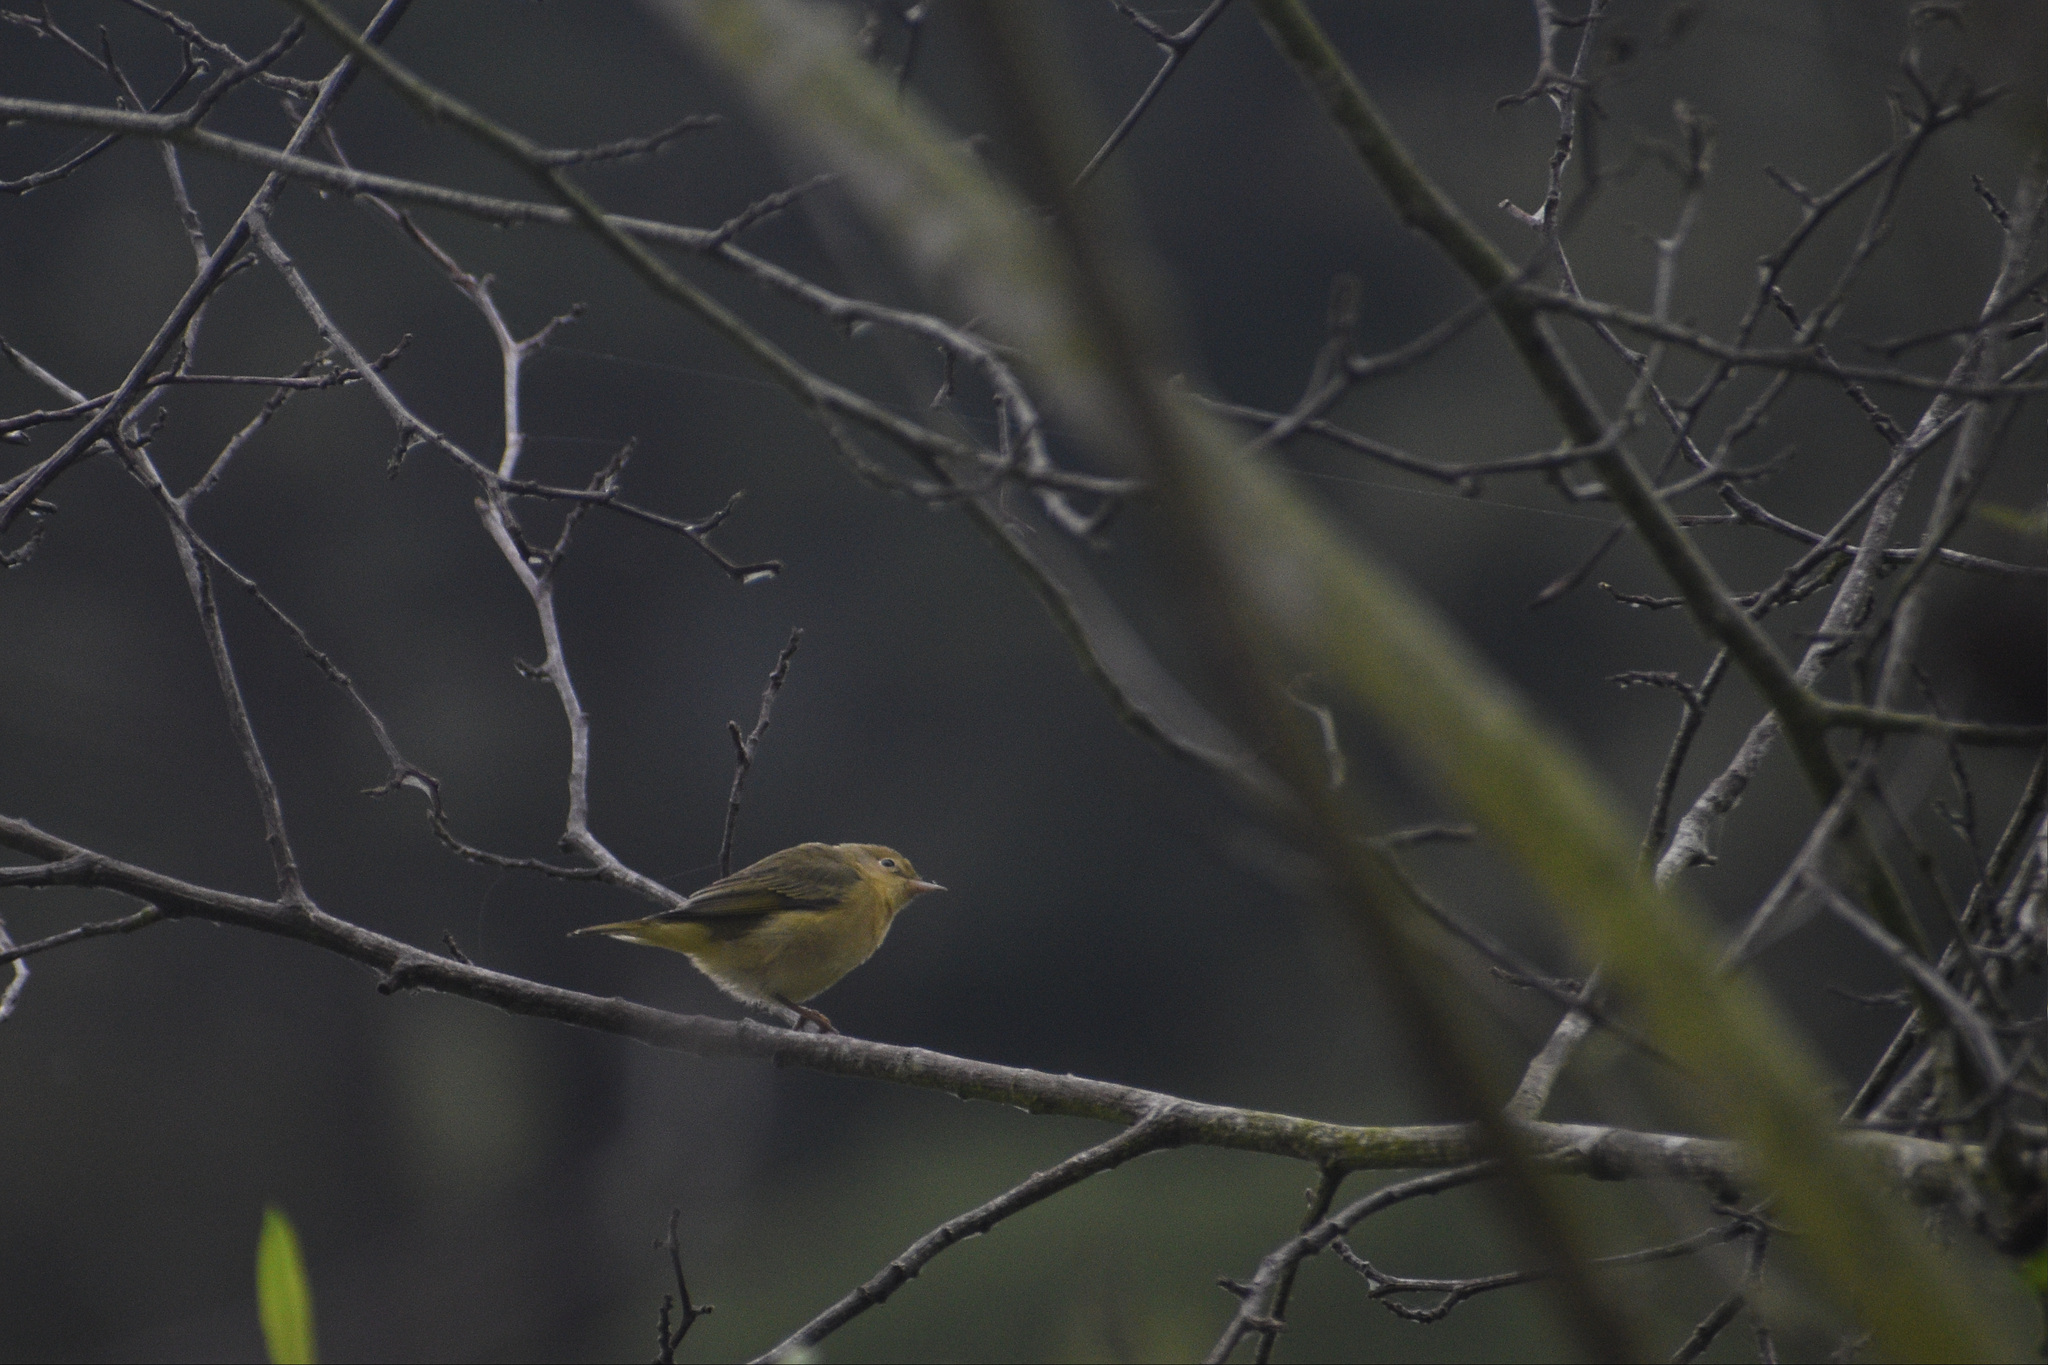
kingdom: Animalia
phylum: Chordata
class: Aves
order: Passeriformes
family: Parulidae
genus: Setophaga
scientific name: Setophaga petechia
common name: Yellow warbler
